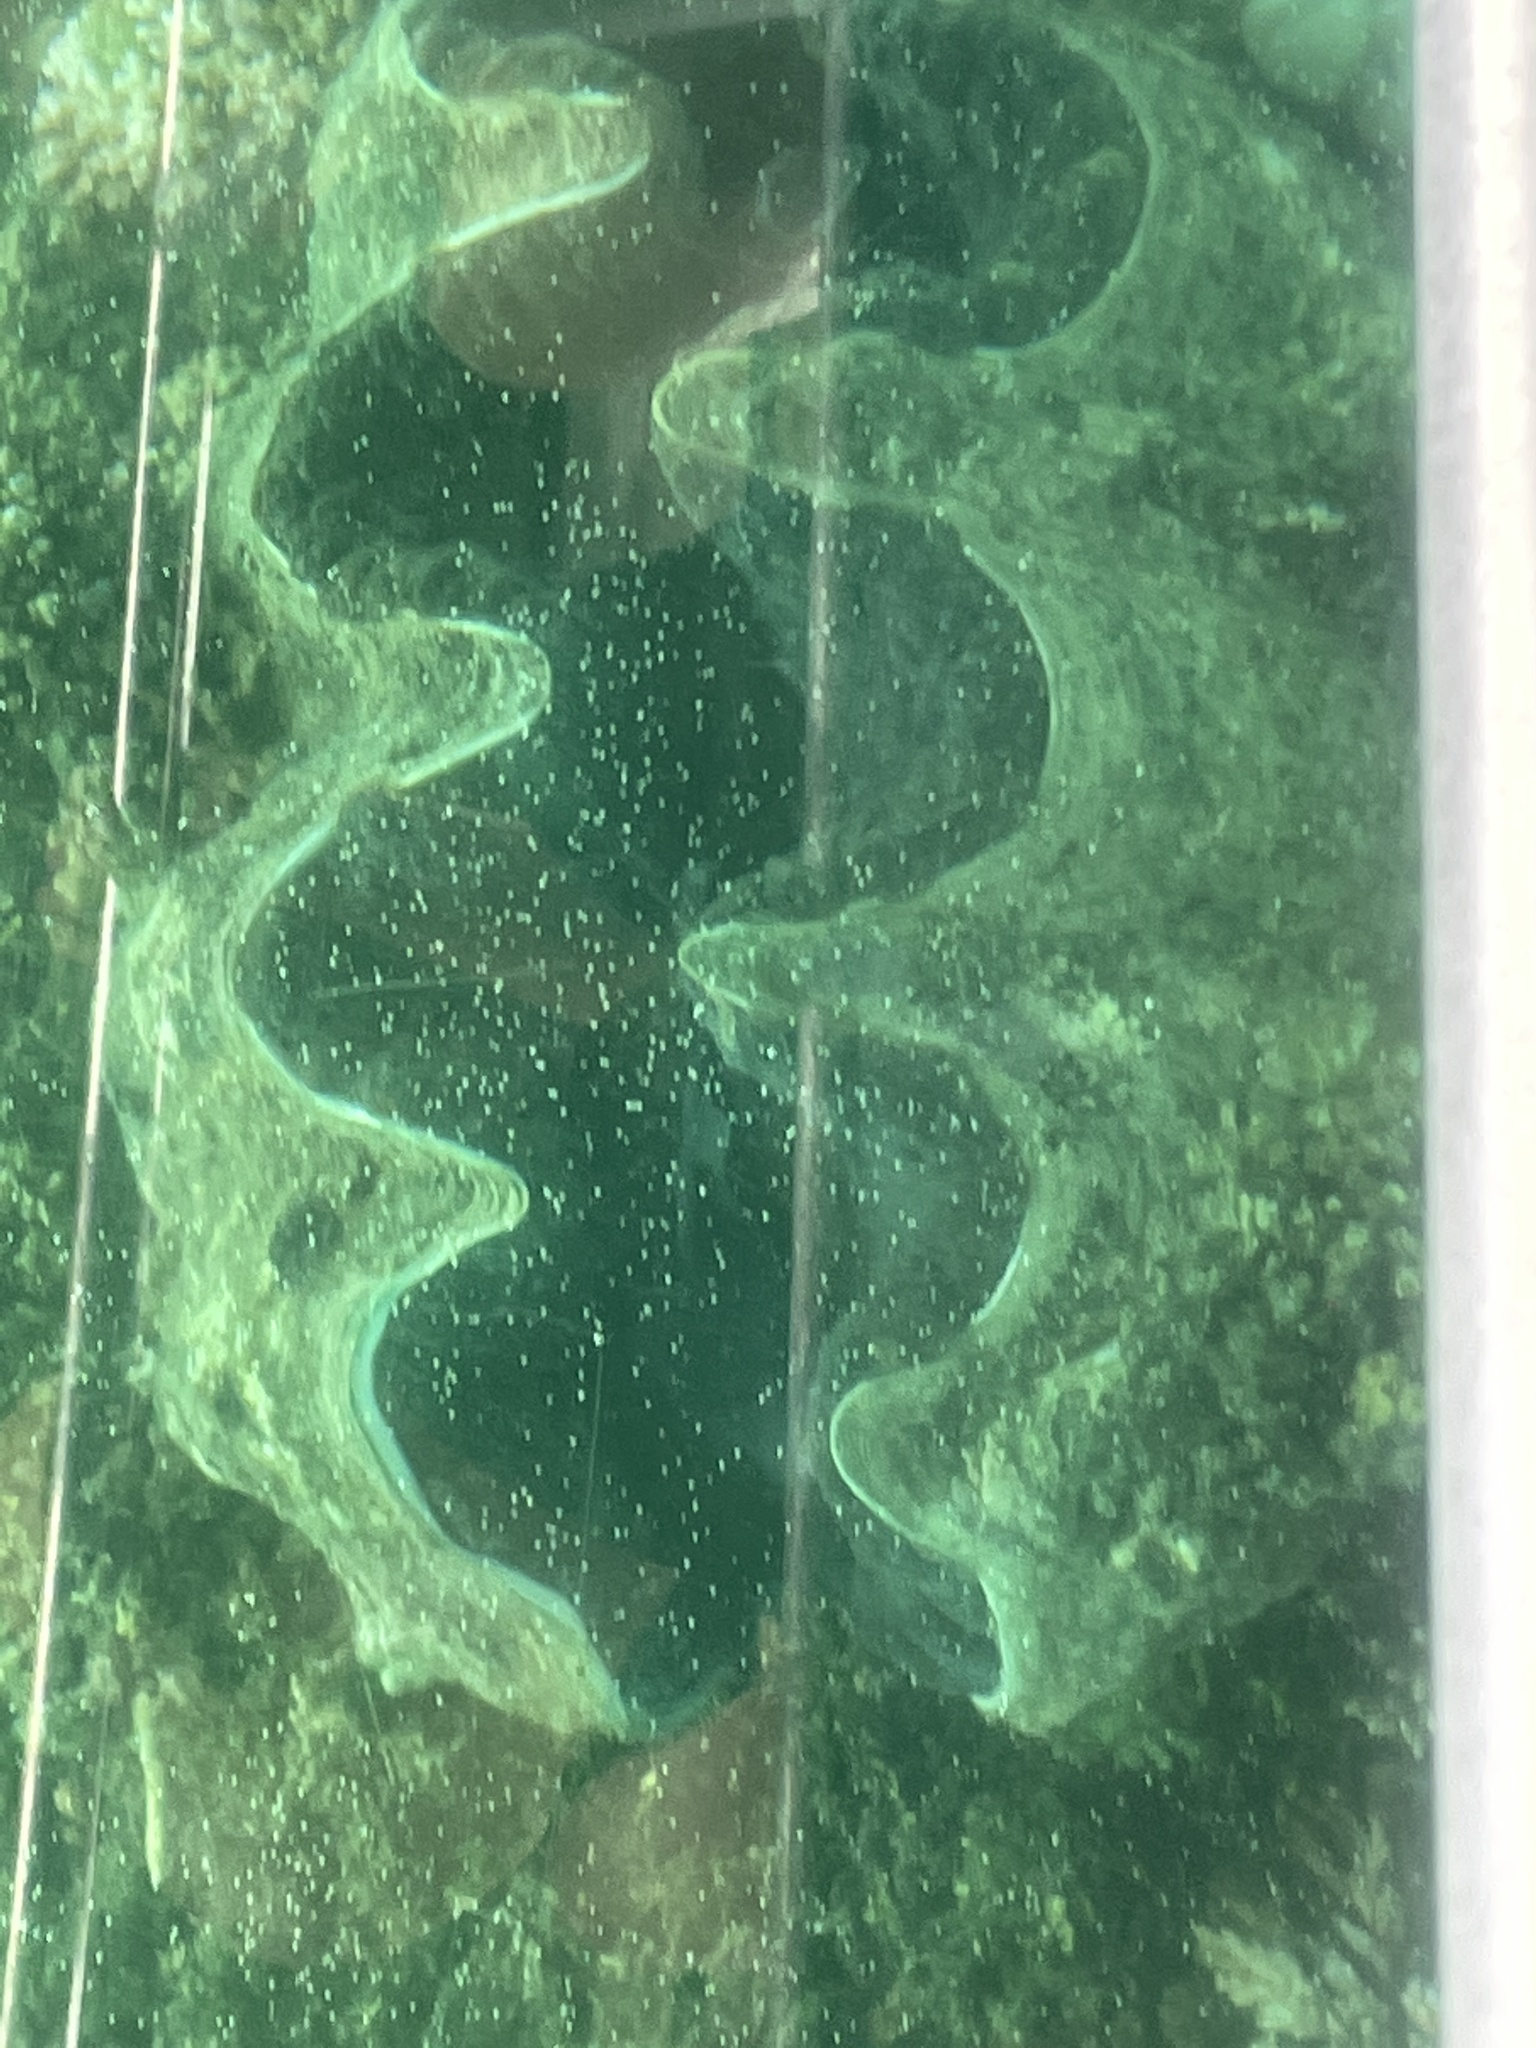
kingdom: Animalia
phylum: Mollusca
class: Bivalvia
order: Cardiida
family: Cardiidae
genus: Tridacna
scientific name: Tridacna gigas
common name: Giant clam
